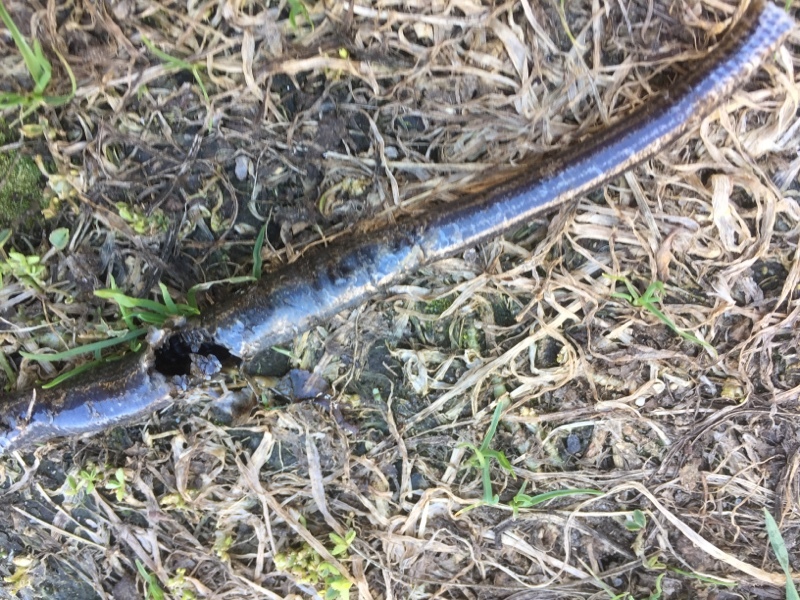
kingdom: Animalia
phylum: Chordata
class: Squamata
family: Anguidae
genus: Anguis
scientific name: Anguis fragilis
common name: Slow worm
